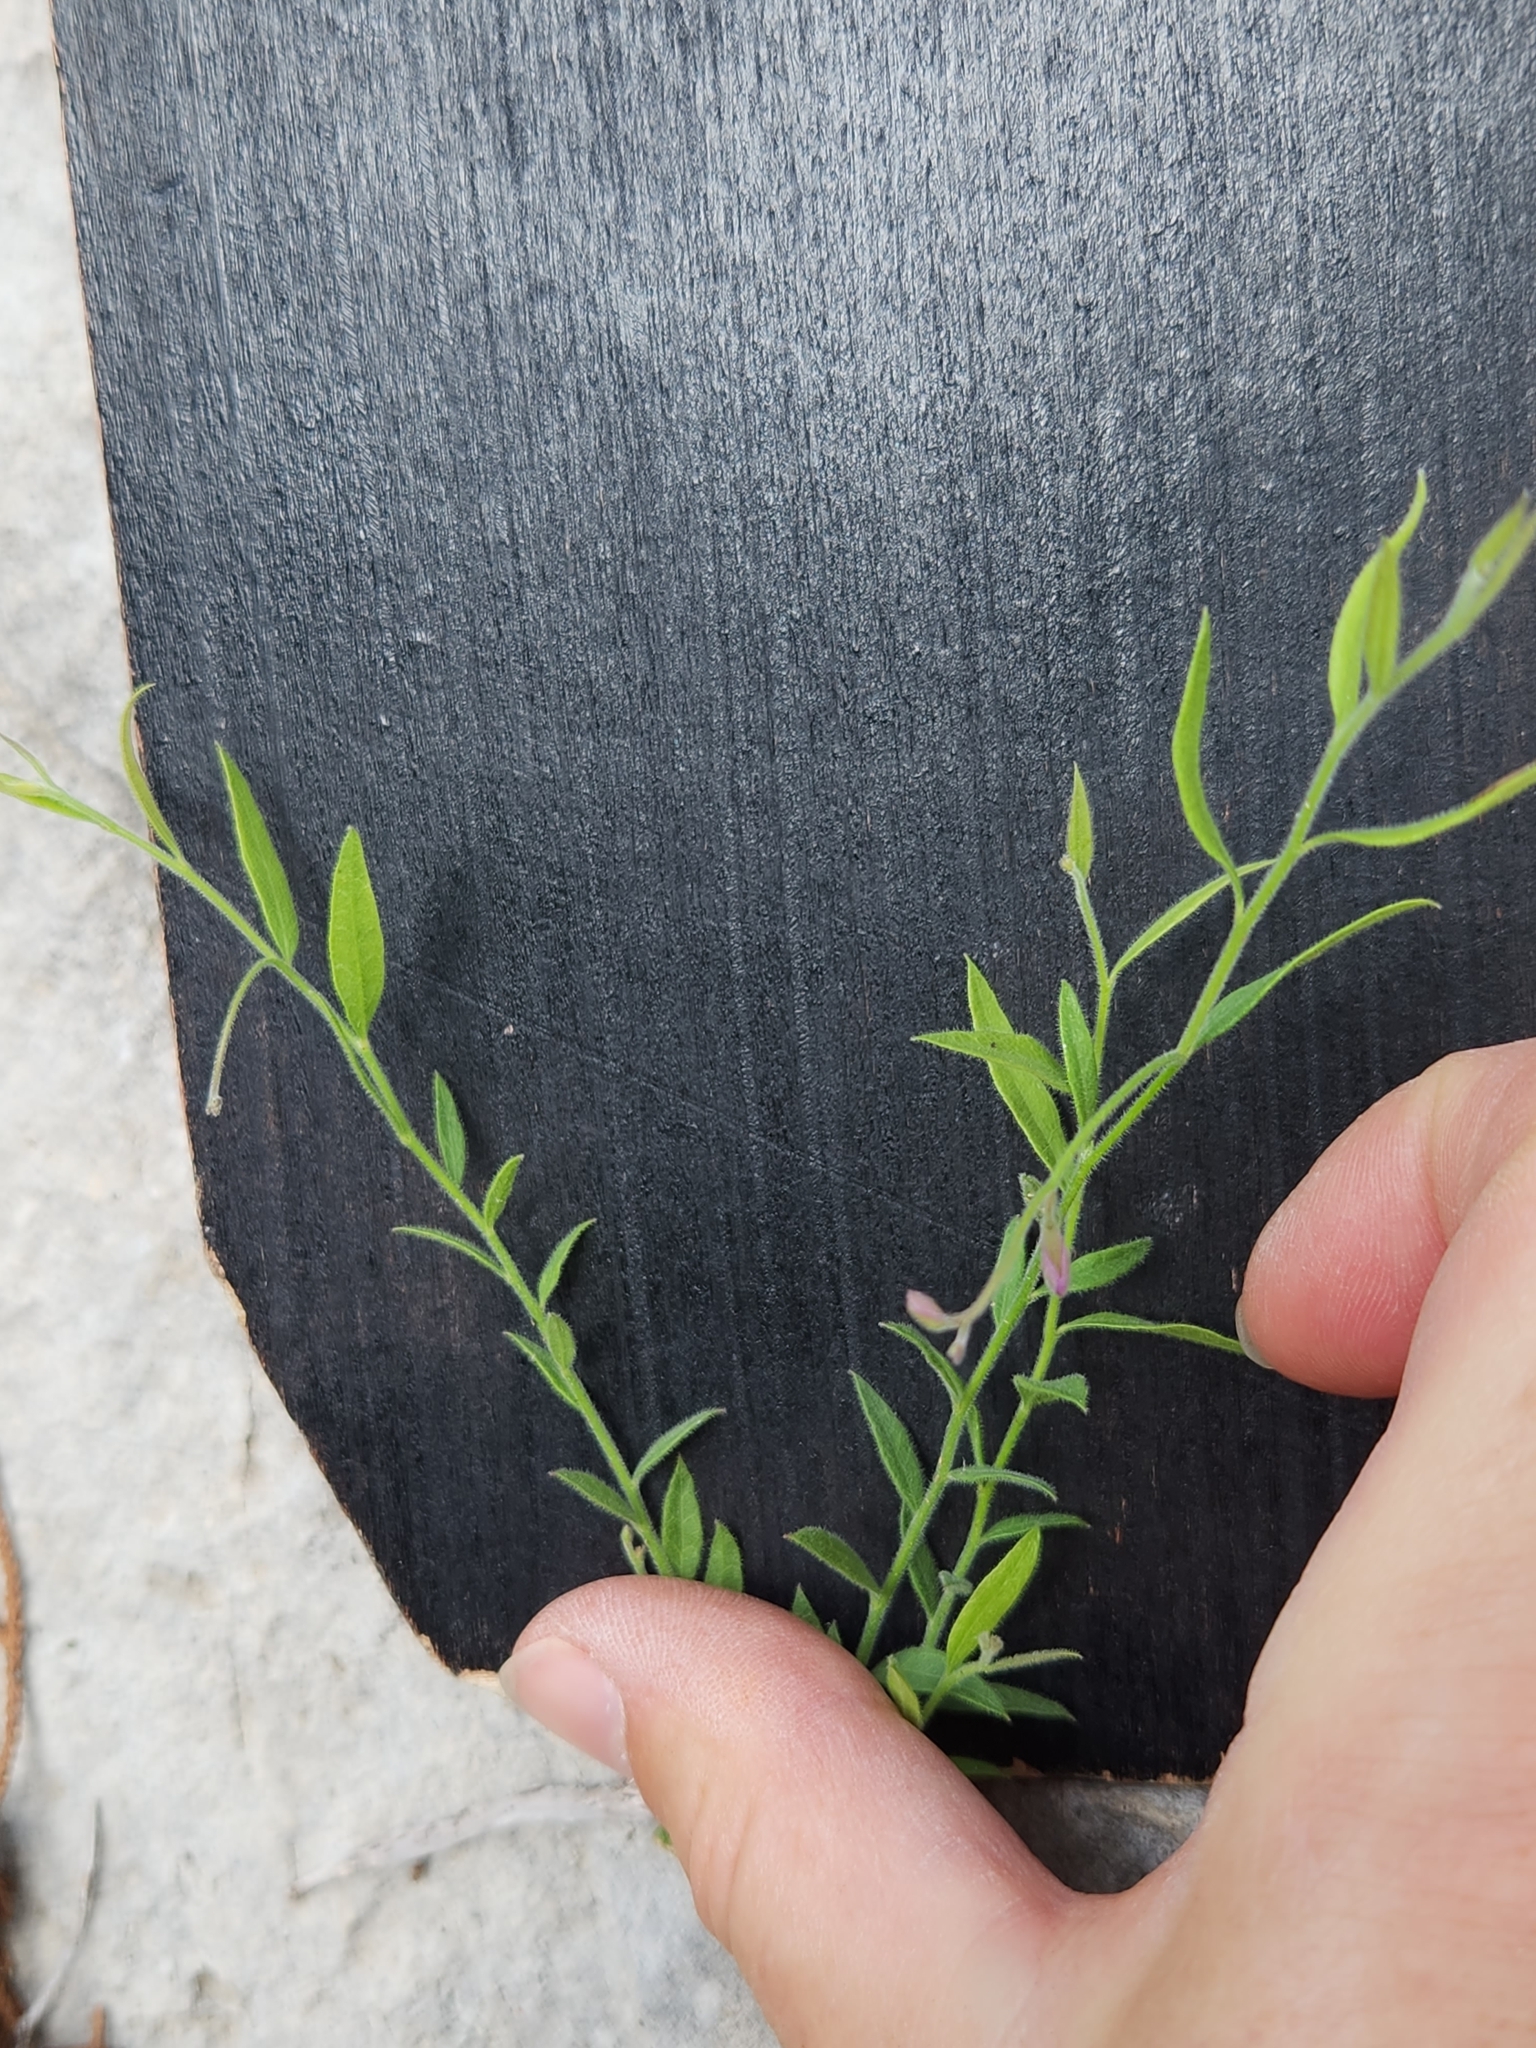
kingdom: Plantae
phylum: Tracheophyta
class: Magnoliopsida
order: Fabales
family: Polygalaceae
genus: Rhinotropis
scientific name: Rhinotropis lindheimeri
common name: Shrubby milkwort
